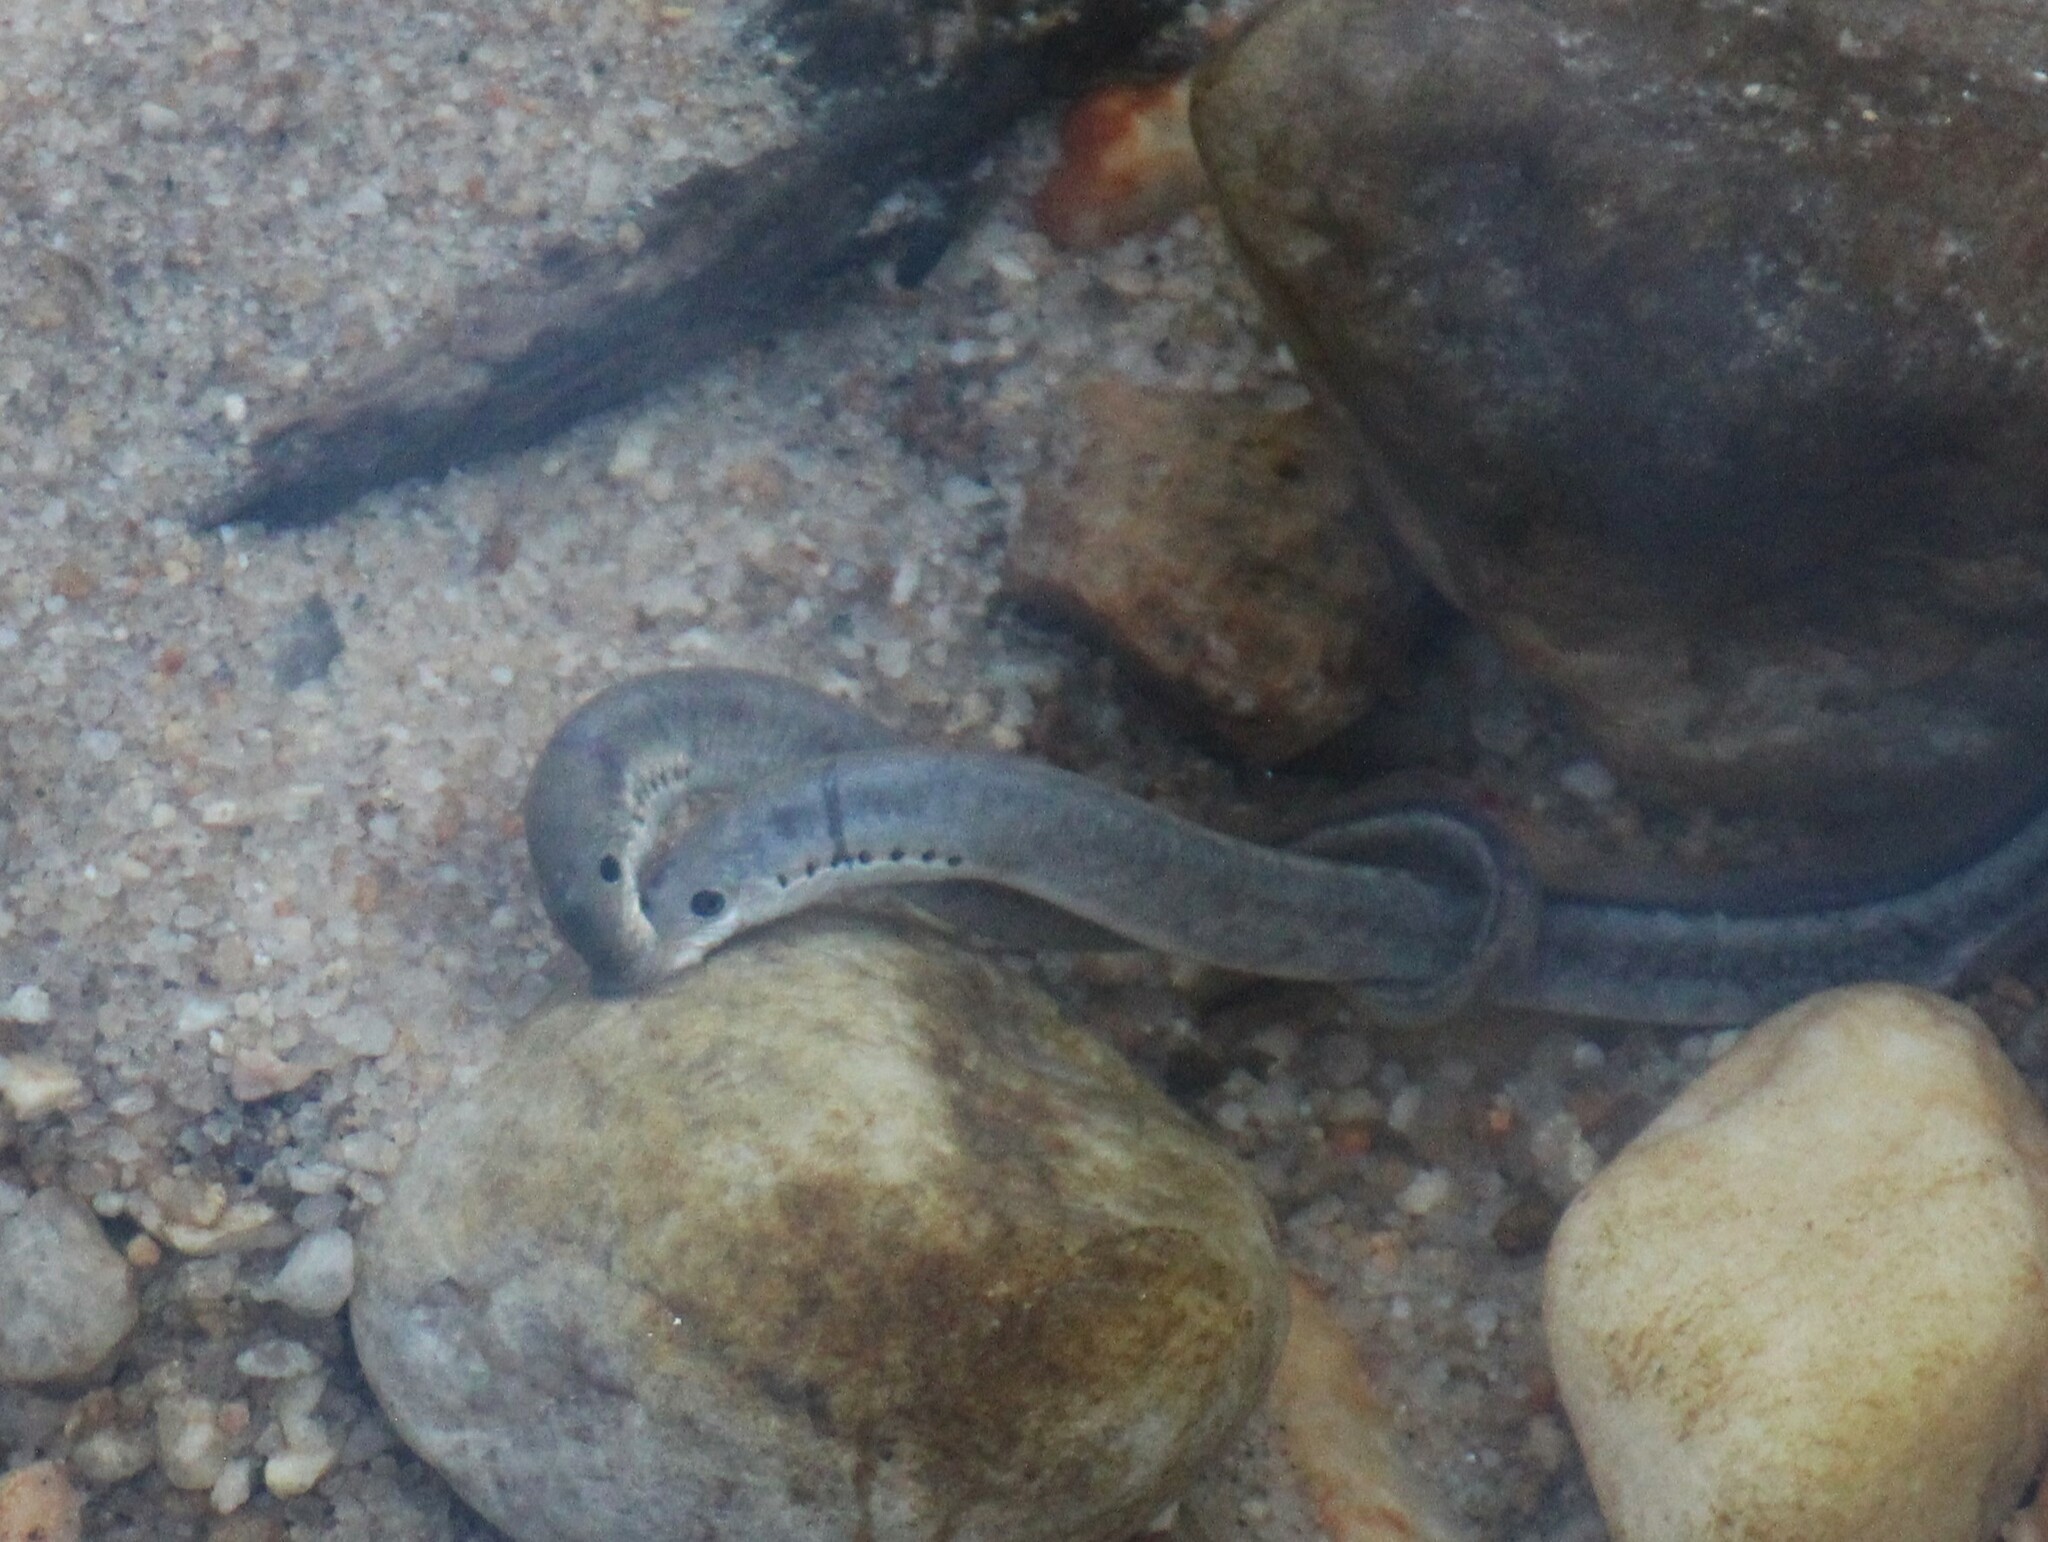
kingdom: Animalia
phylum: Chordata
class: Petromyzonti
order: Petromyzontiformes
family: Petromyzontidae
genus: Lampetra
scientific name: Lampetra aepyptera
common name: Least brook lamprey
